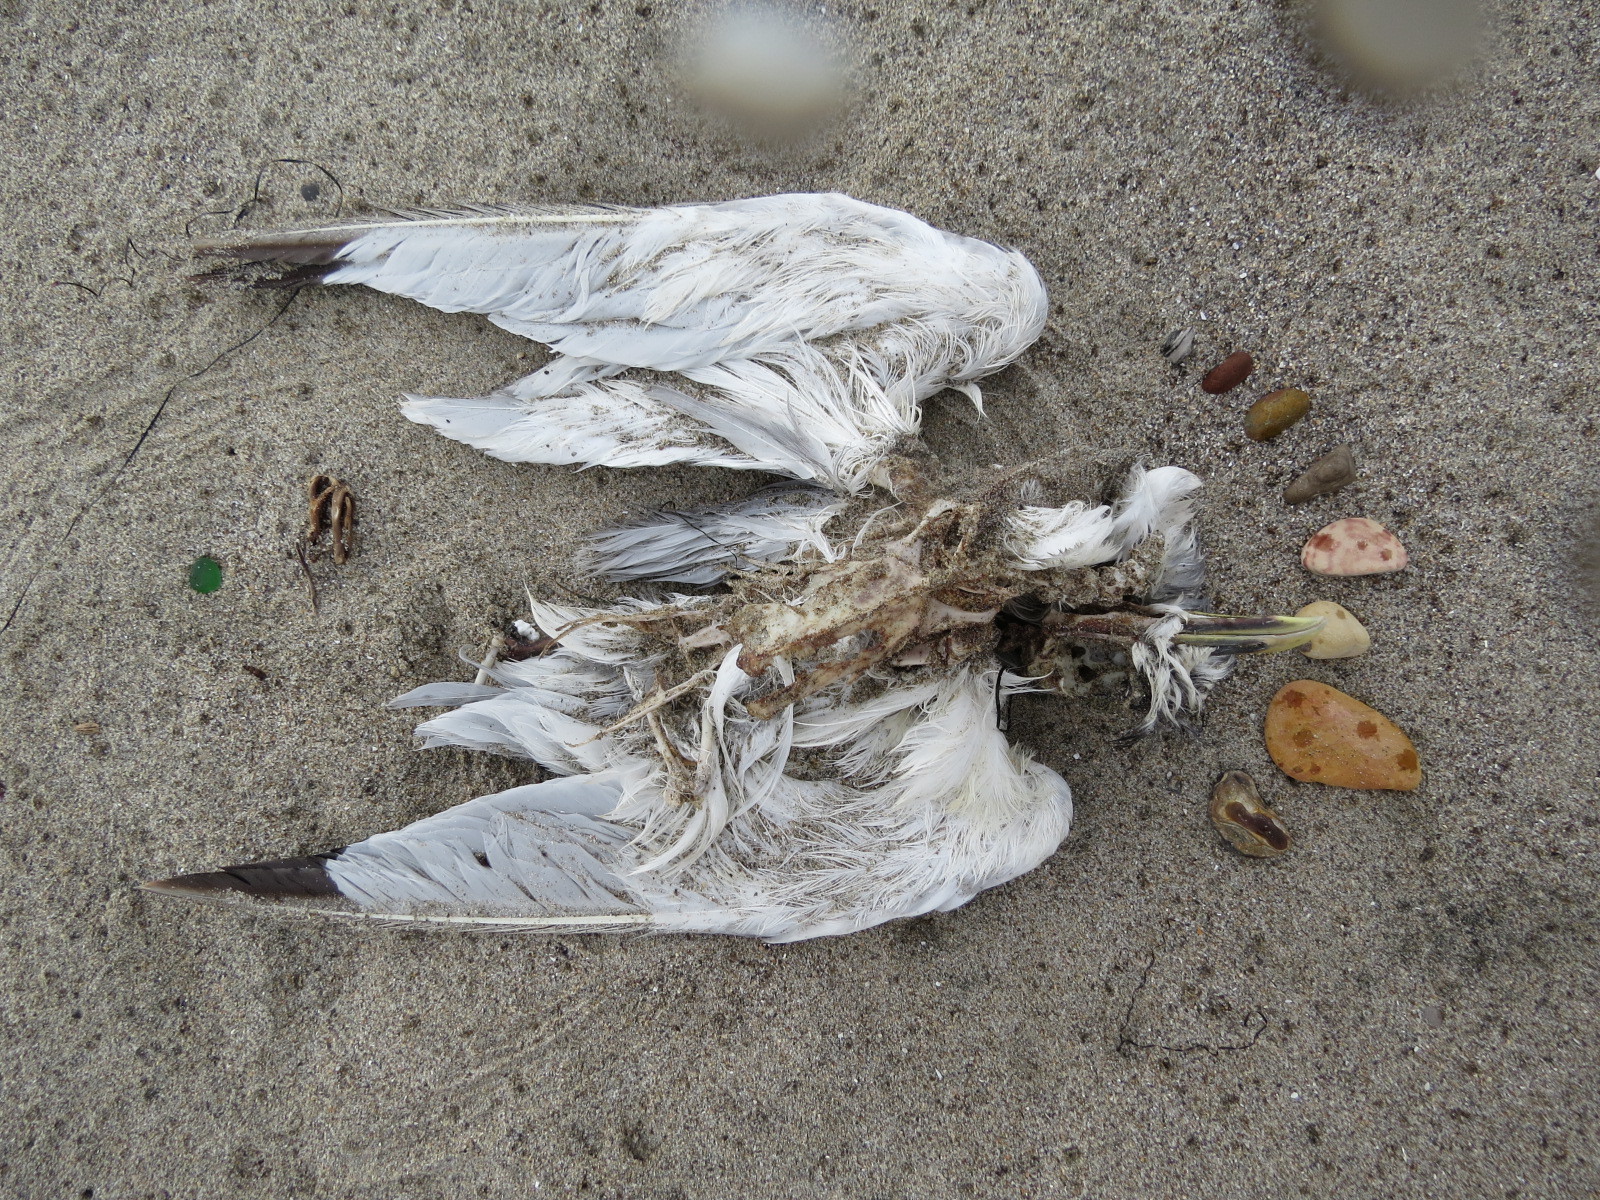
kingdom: Animalia
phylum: Chordata
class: Aves
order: Charadriiformes
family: Laridae
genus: Rissa
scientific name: Rissa tridactyla
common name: Black-legged kittiwake
